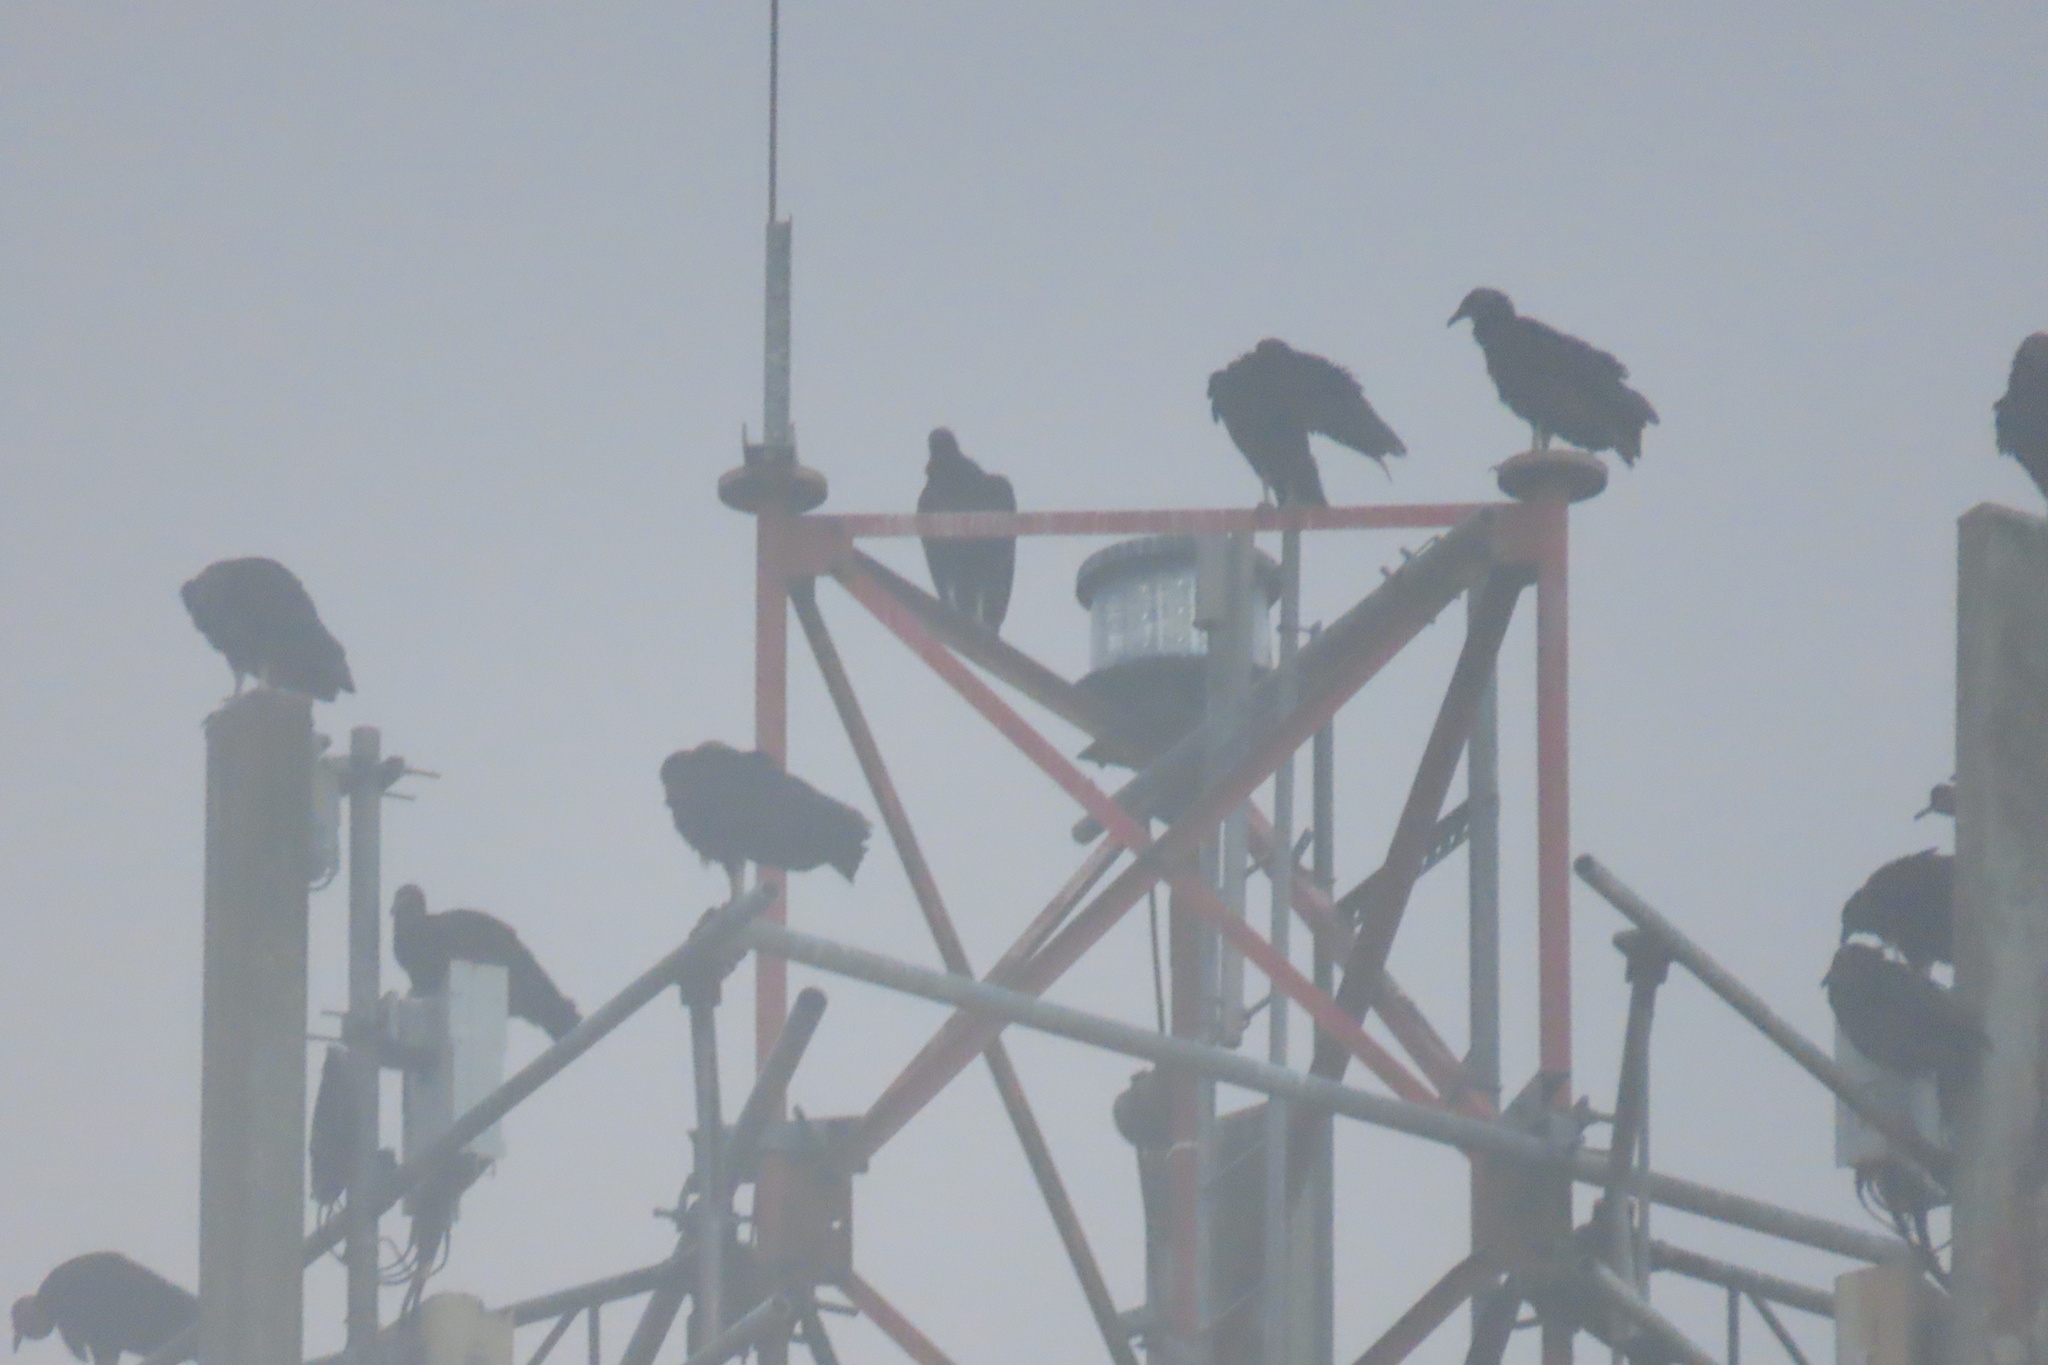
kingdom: Animalia
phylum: Chordata
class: Aves
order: Accipitriformes
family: Cathartidae
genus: Coragyps
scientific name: Coragyps atratus
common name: Black vulture
